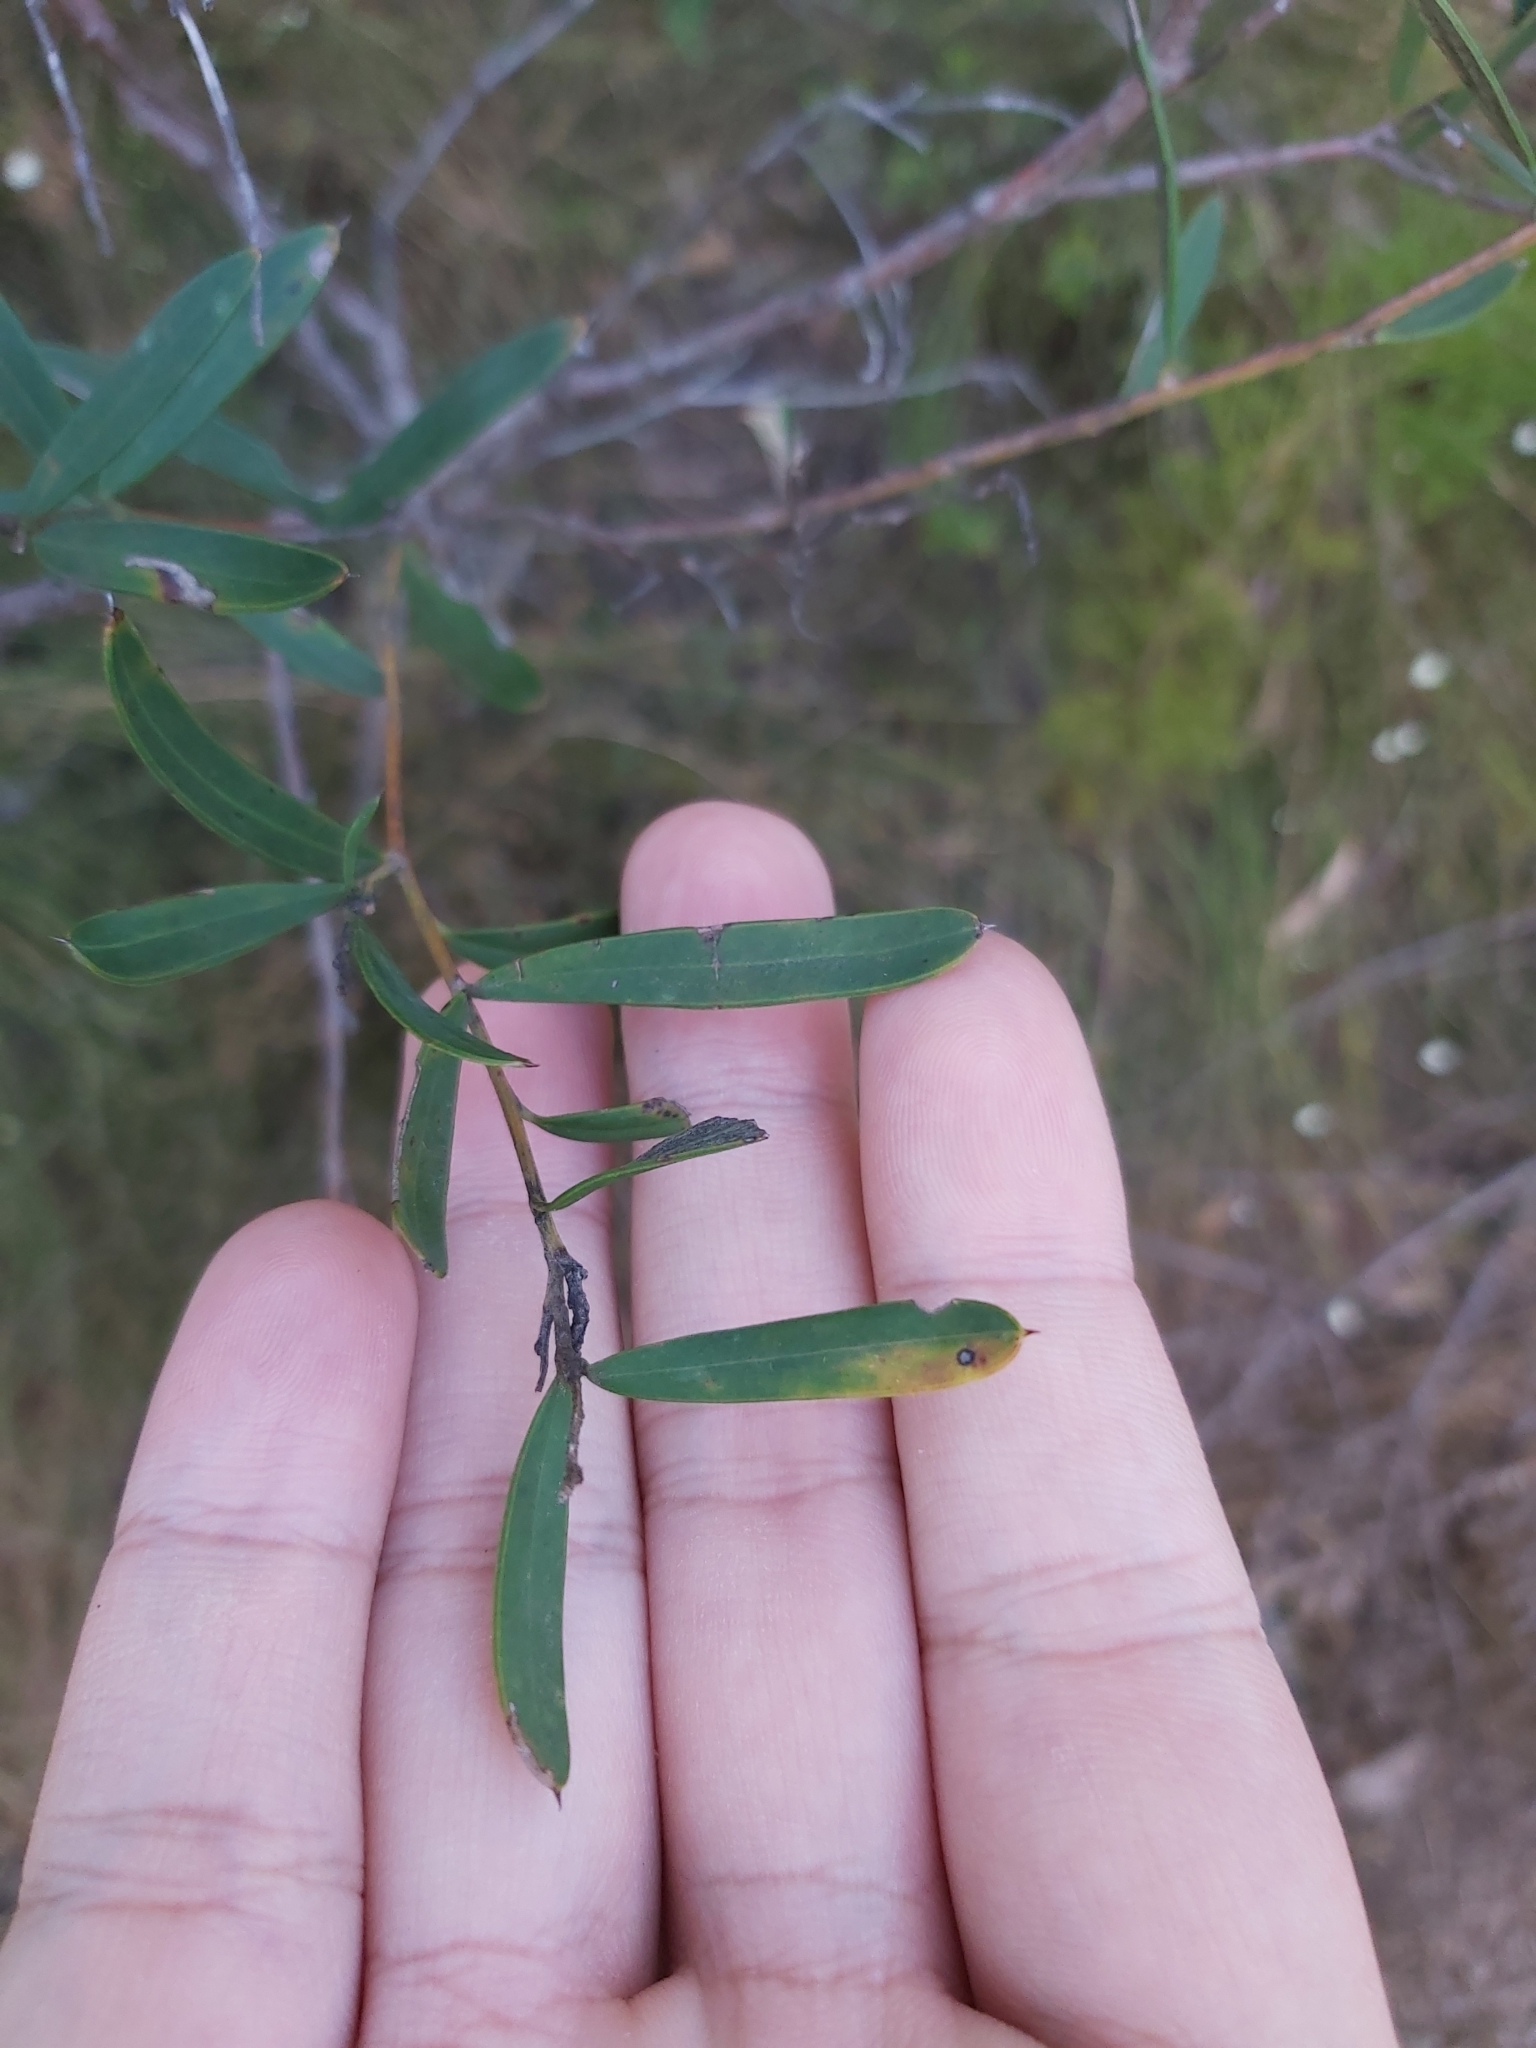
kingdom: Plantae
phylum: Tracheophyta
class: Magnoliopsida
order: Proteales
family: Proteaceae
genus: Grevillea
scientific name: Grevillea sericea
